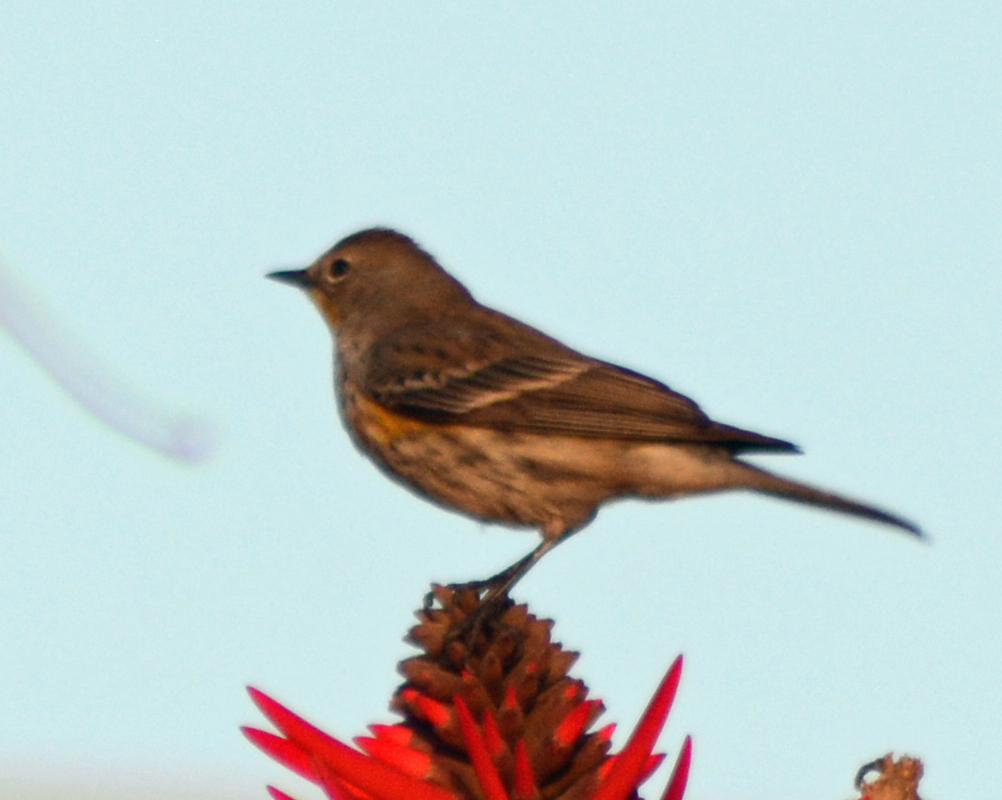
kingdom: Animalia
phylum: Chordata
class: Aves
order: Passeriformes
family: Parulidae
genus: Setophaga
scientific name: Setophaga coronata
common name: Myrtle warbler
